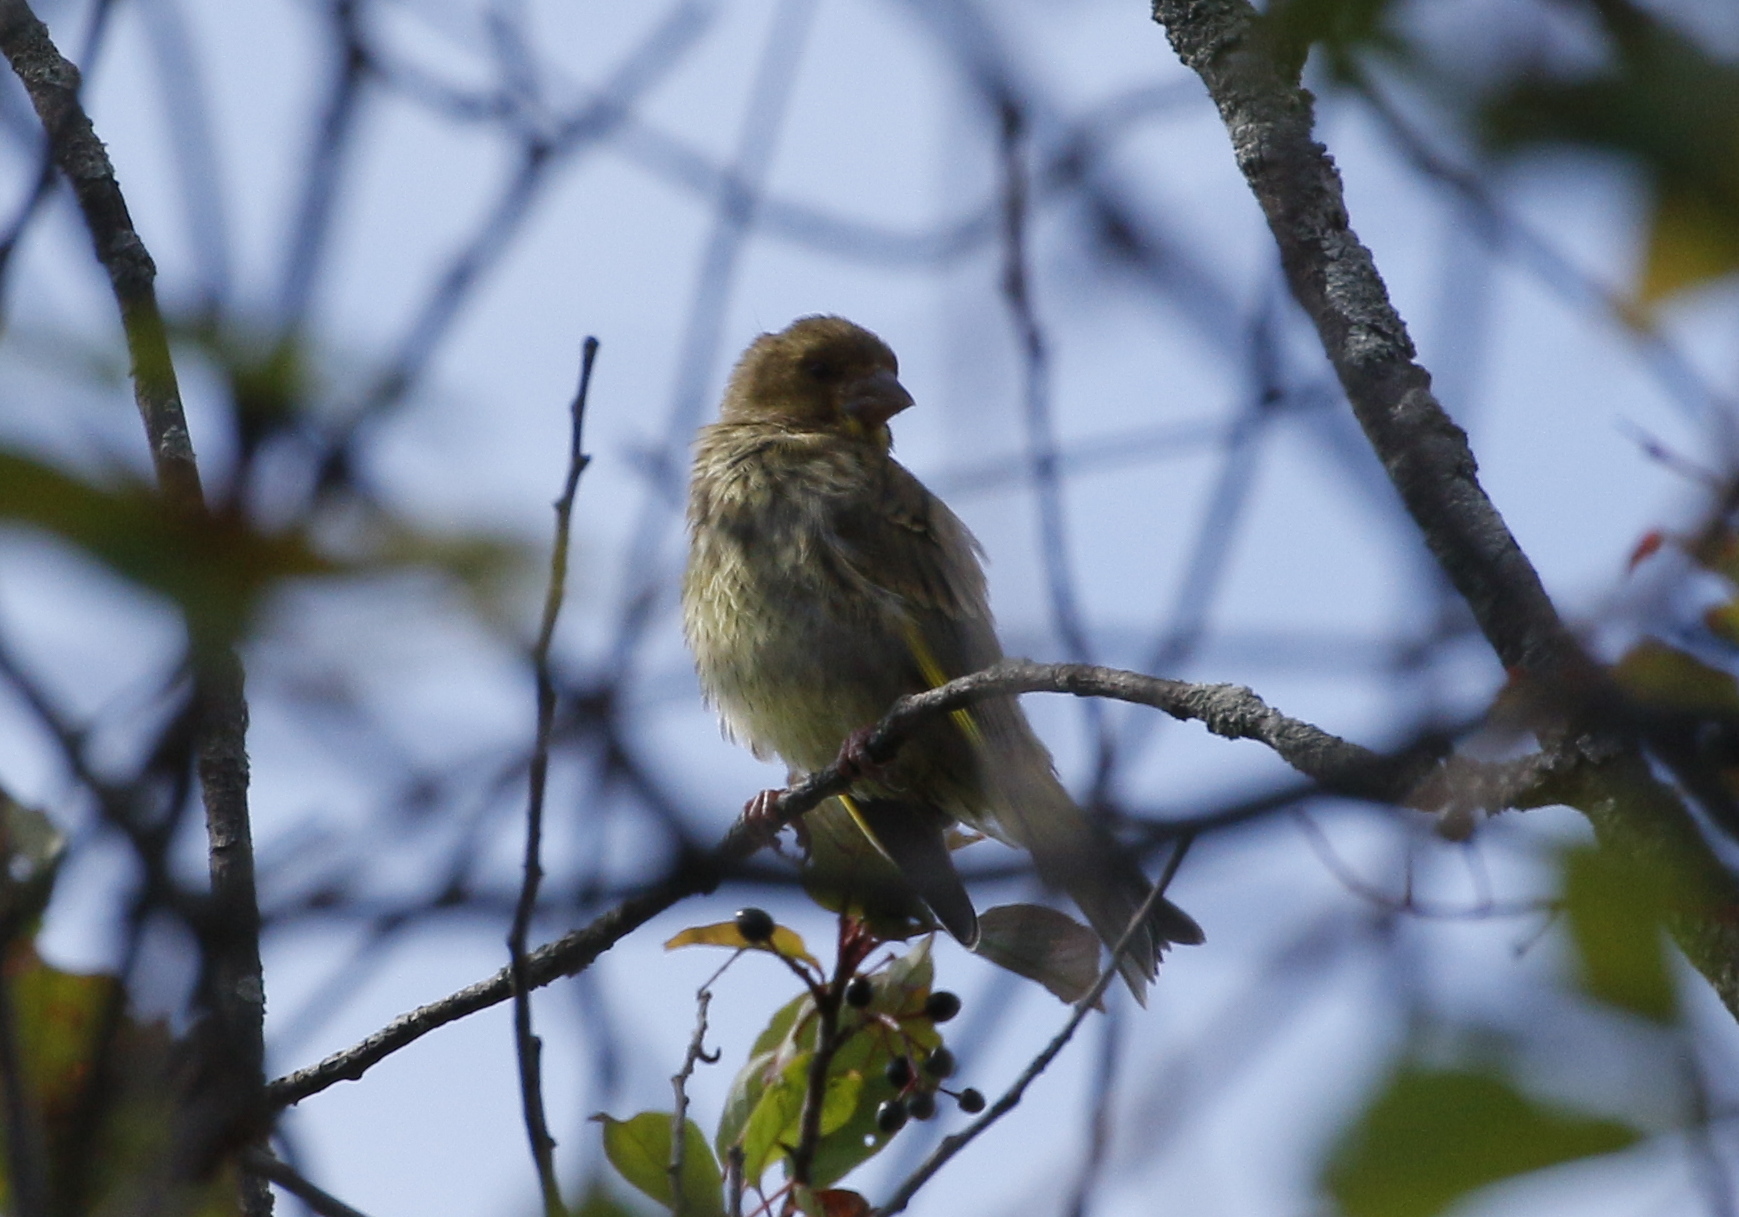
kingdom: Plantae
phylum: Tracheophyta
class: Liliopsida
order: Poales
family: Poaceae
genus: Chloris
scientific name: Chloris chloris
